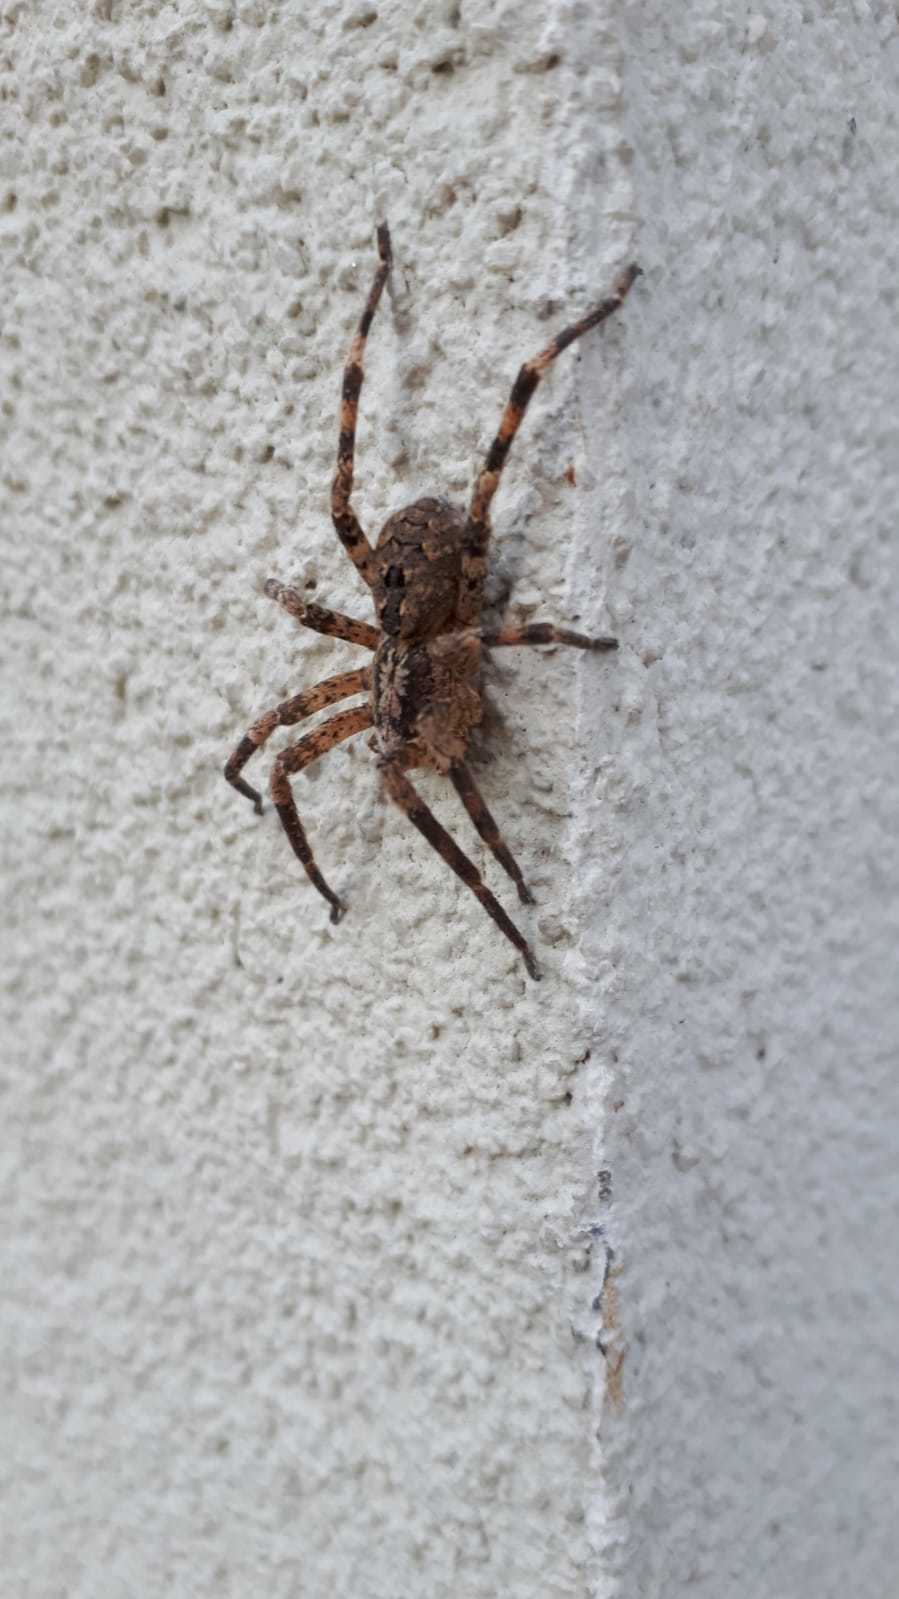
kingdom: Animalia
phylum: Arthropoda
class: Arachnida
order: Araneae
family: Zoropsidae
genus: Zoropsis
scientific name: Zoropsis spinimana
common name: Zoropsid spider
